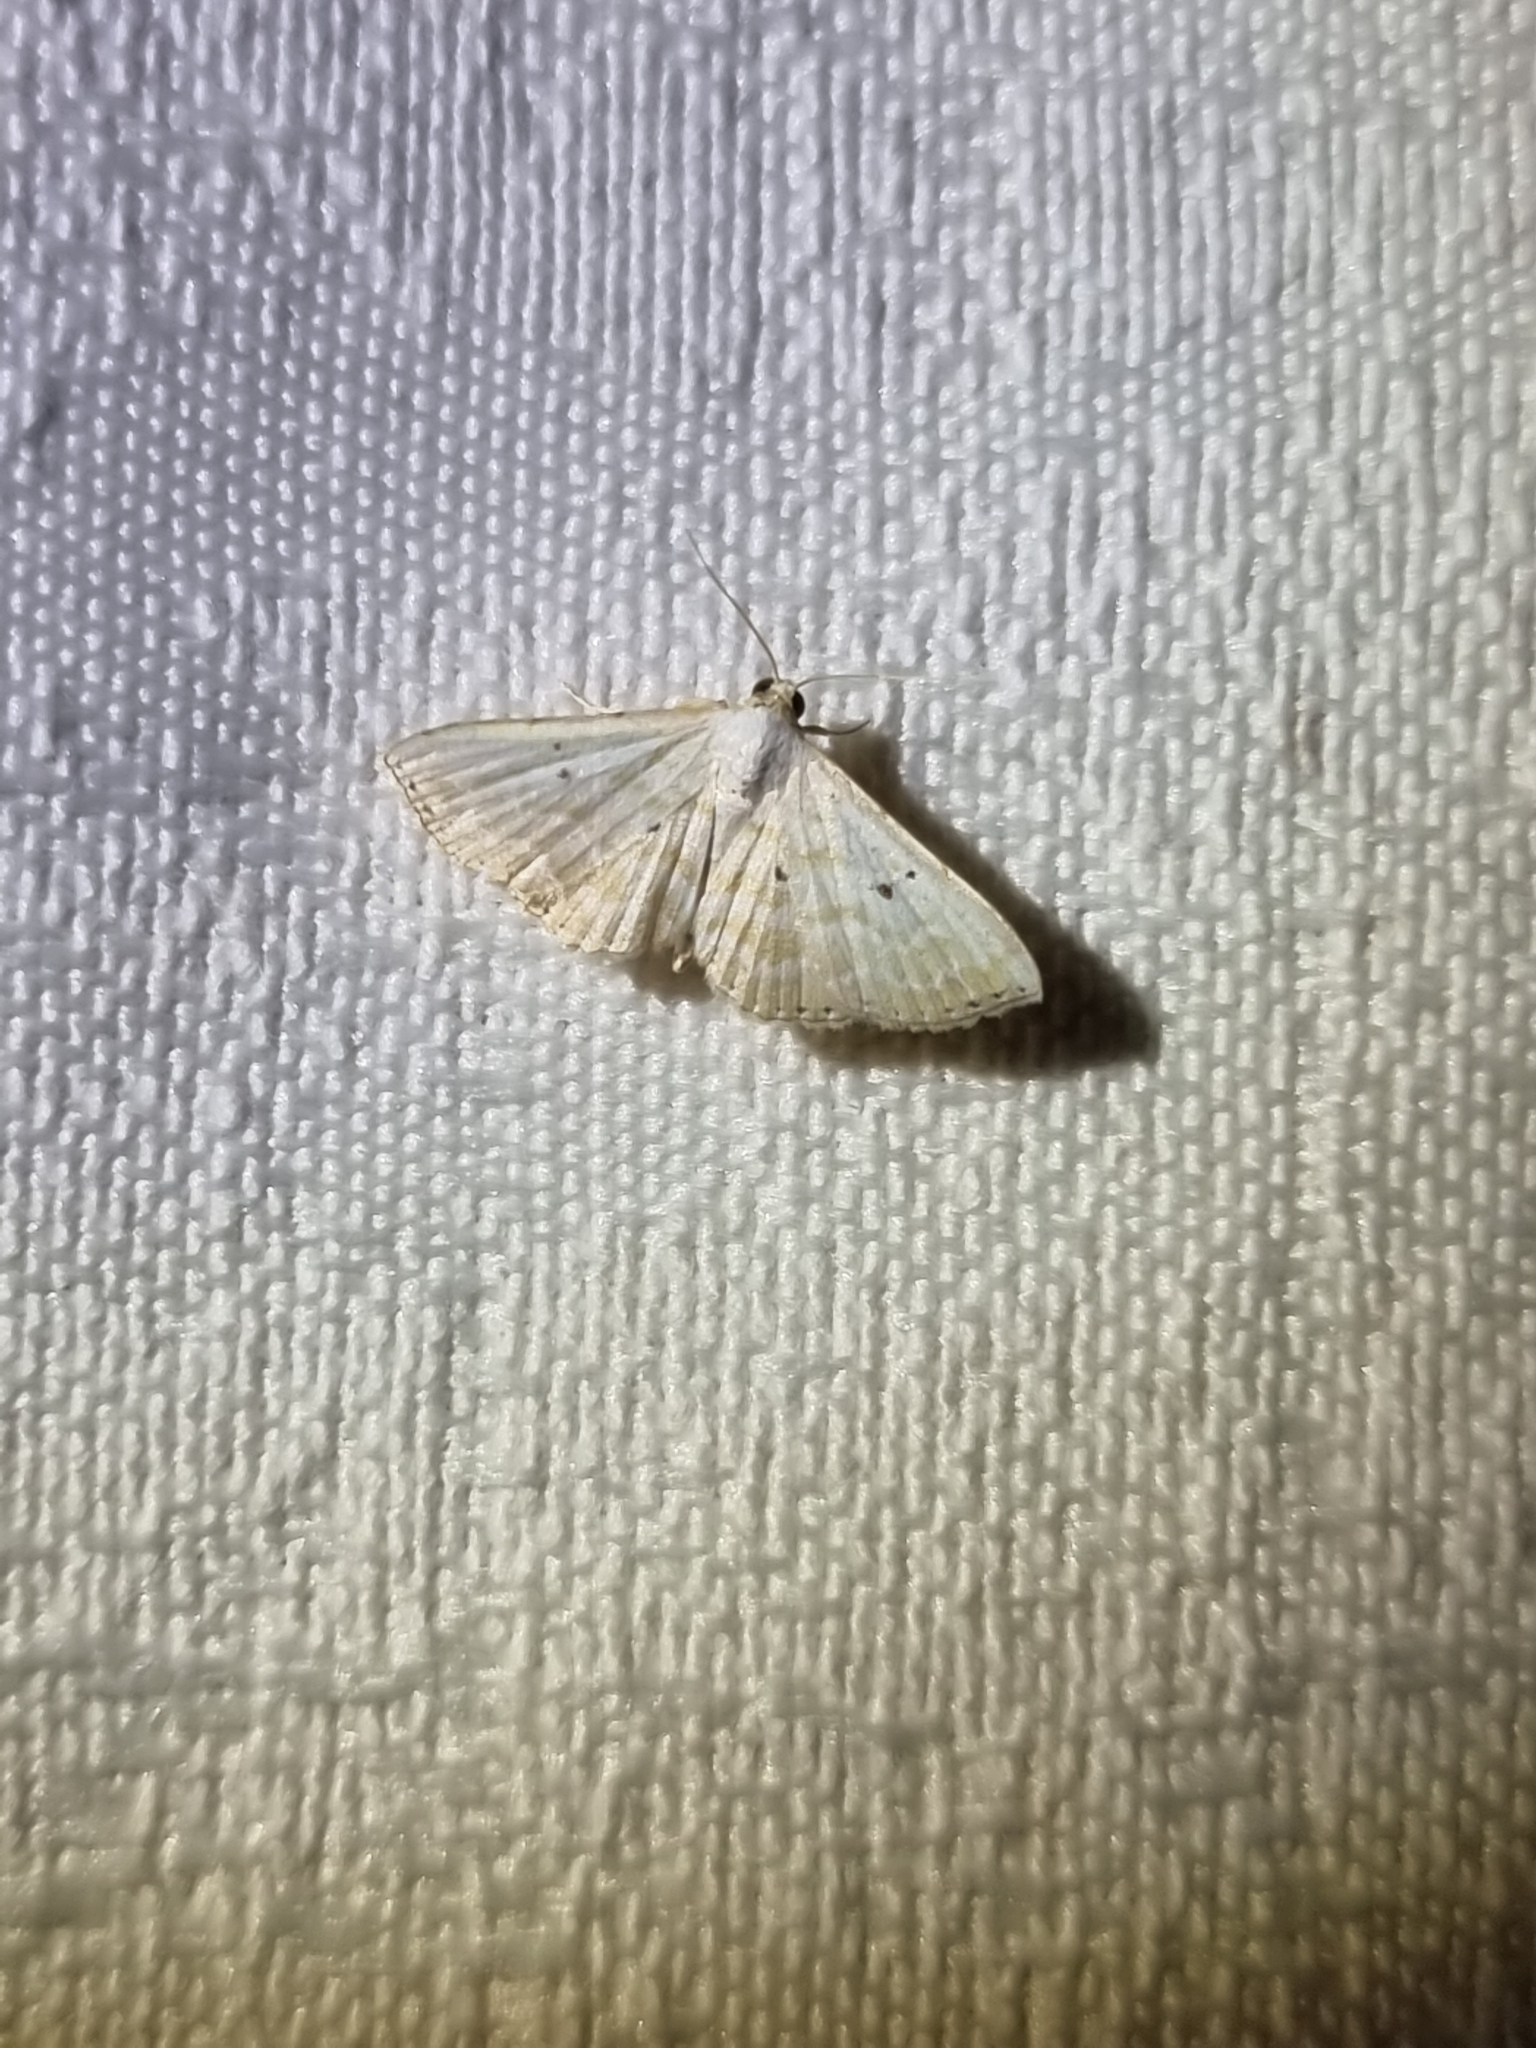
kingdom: Animalia
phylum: Arthropoda
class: Insecta
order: Lepidoptera
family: Noctuidae
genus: Oruza
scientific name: Oruza cariosa
